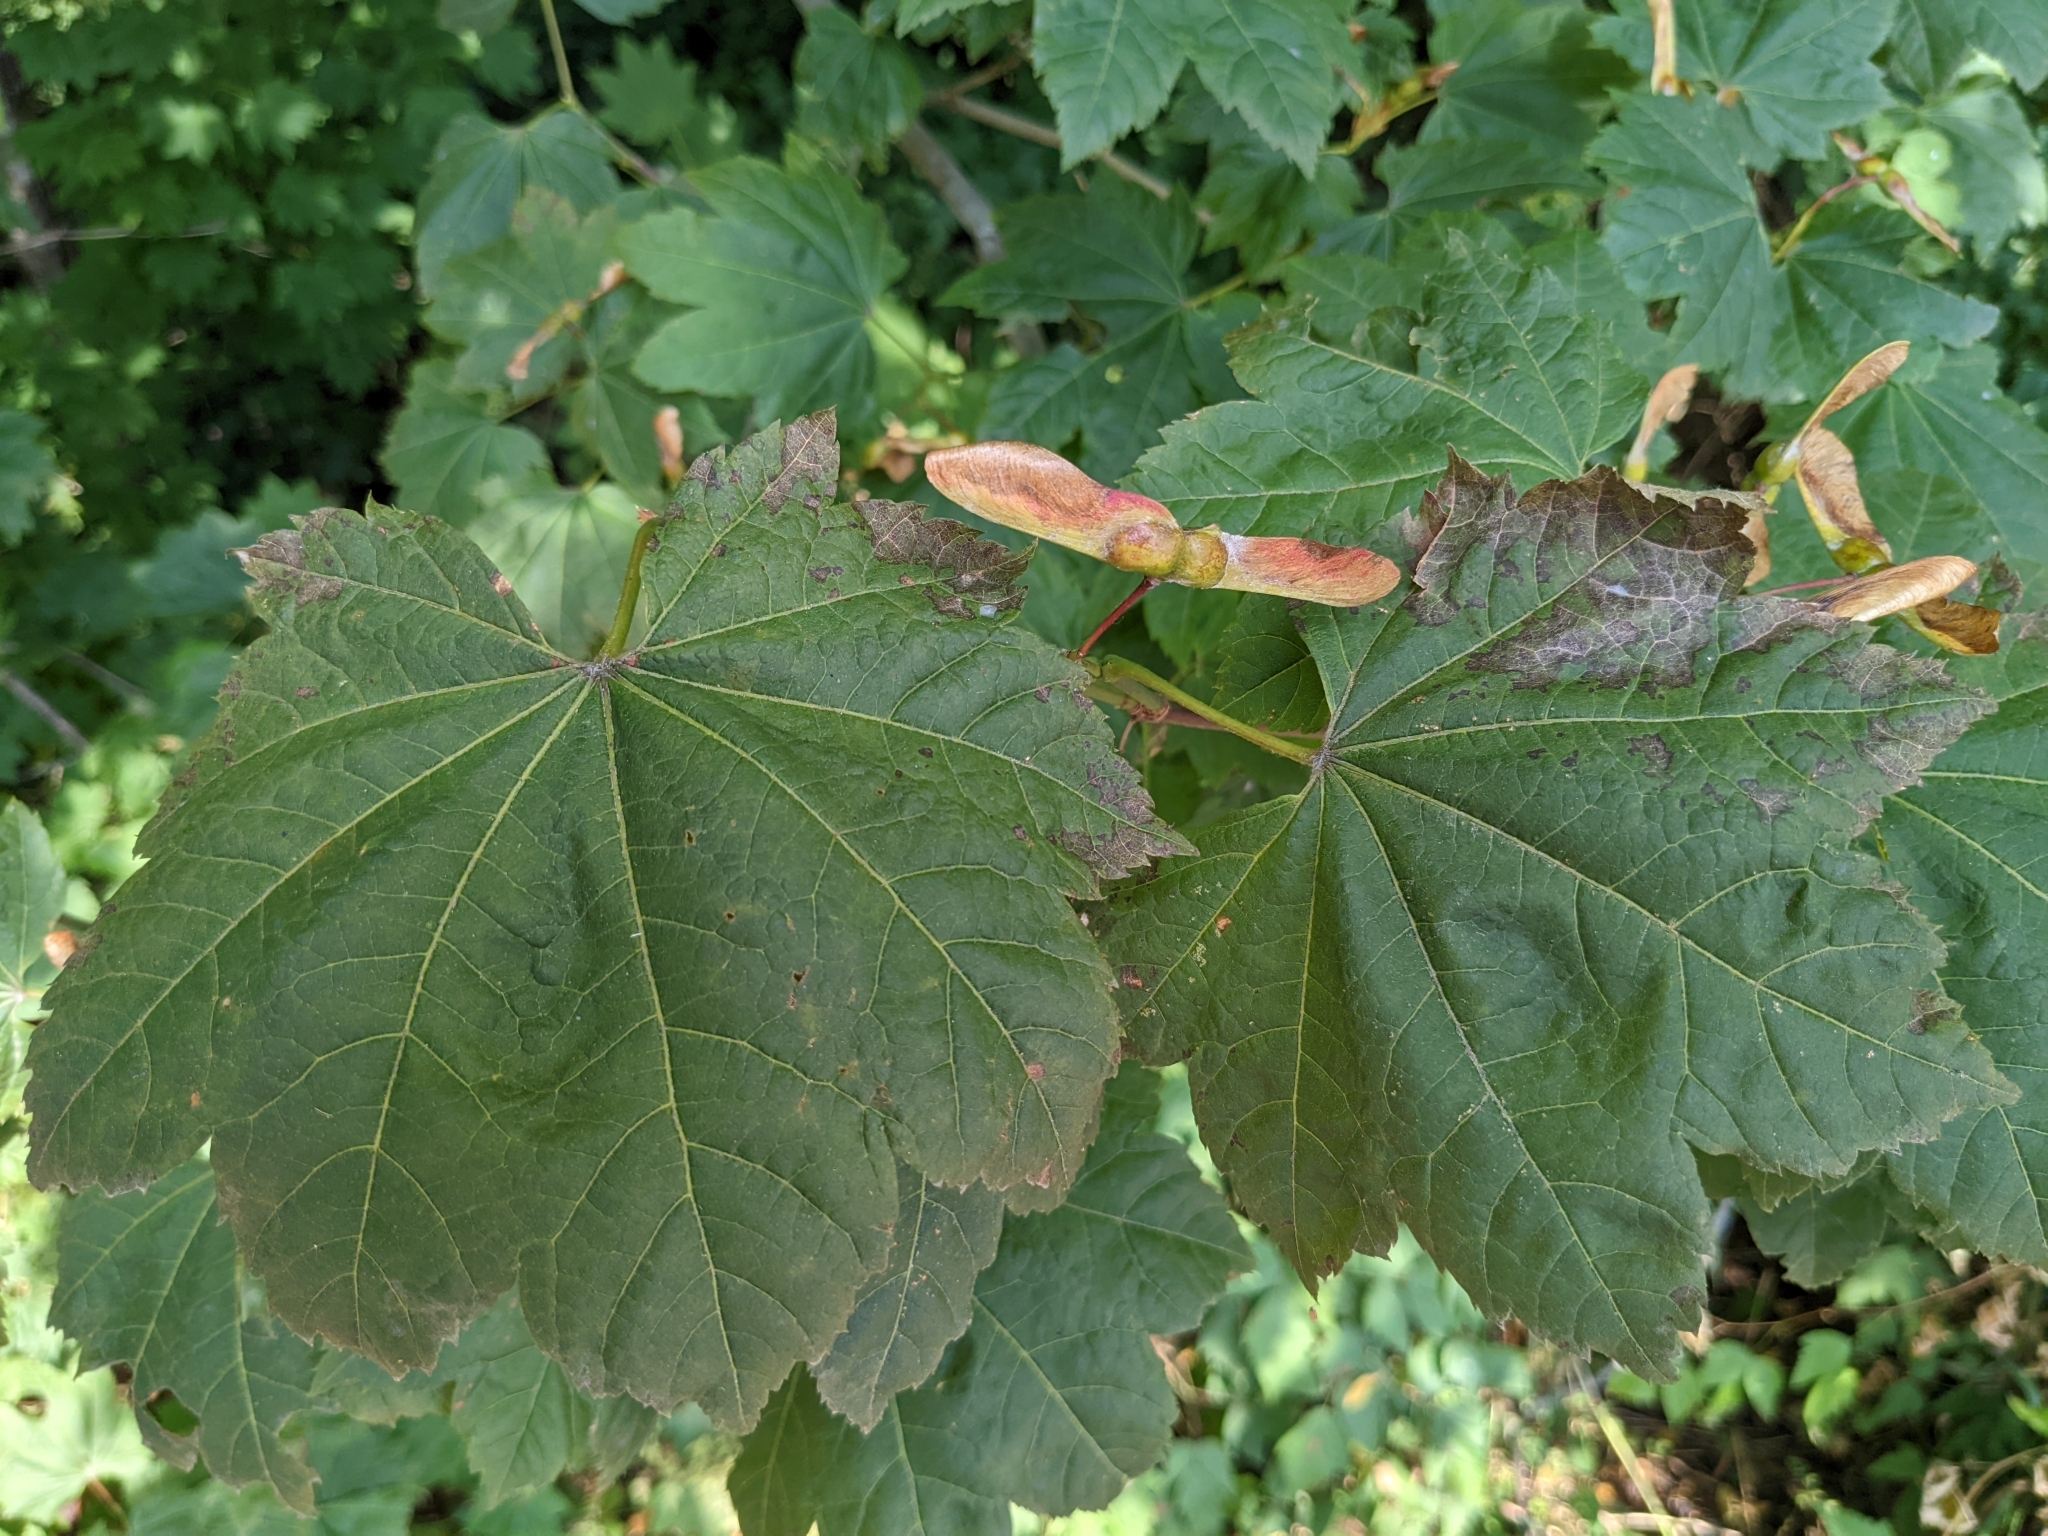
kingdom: Plantae
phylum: Tracheophyta
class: Magnoliopsida
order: Sapindales
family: Sapindaceae
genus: Acer
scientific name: Acer circinatum
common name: Vine maple
